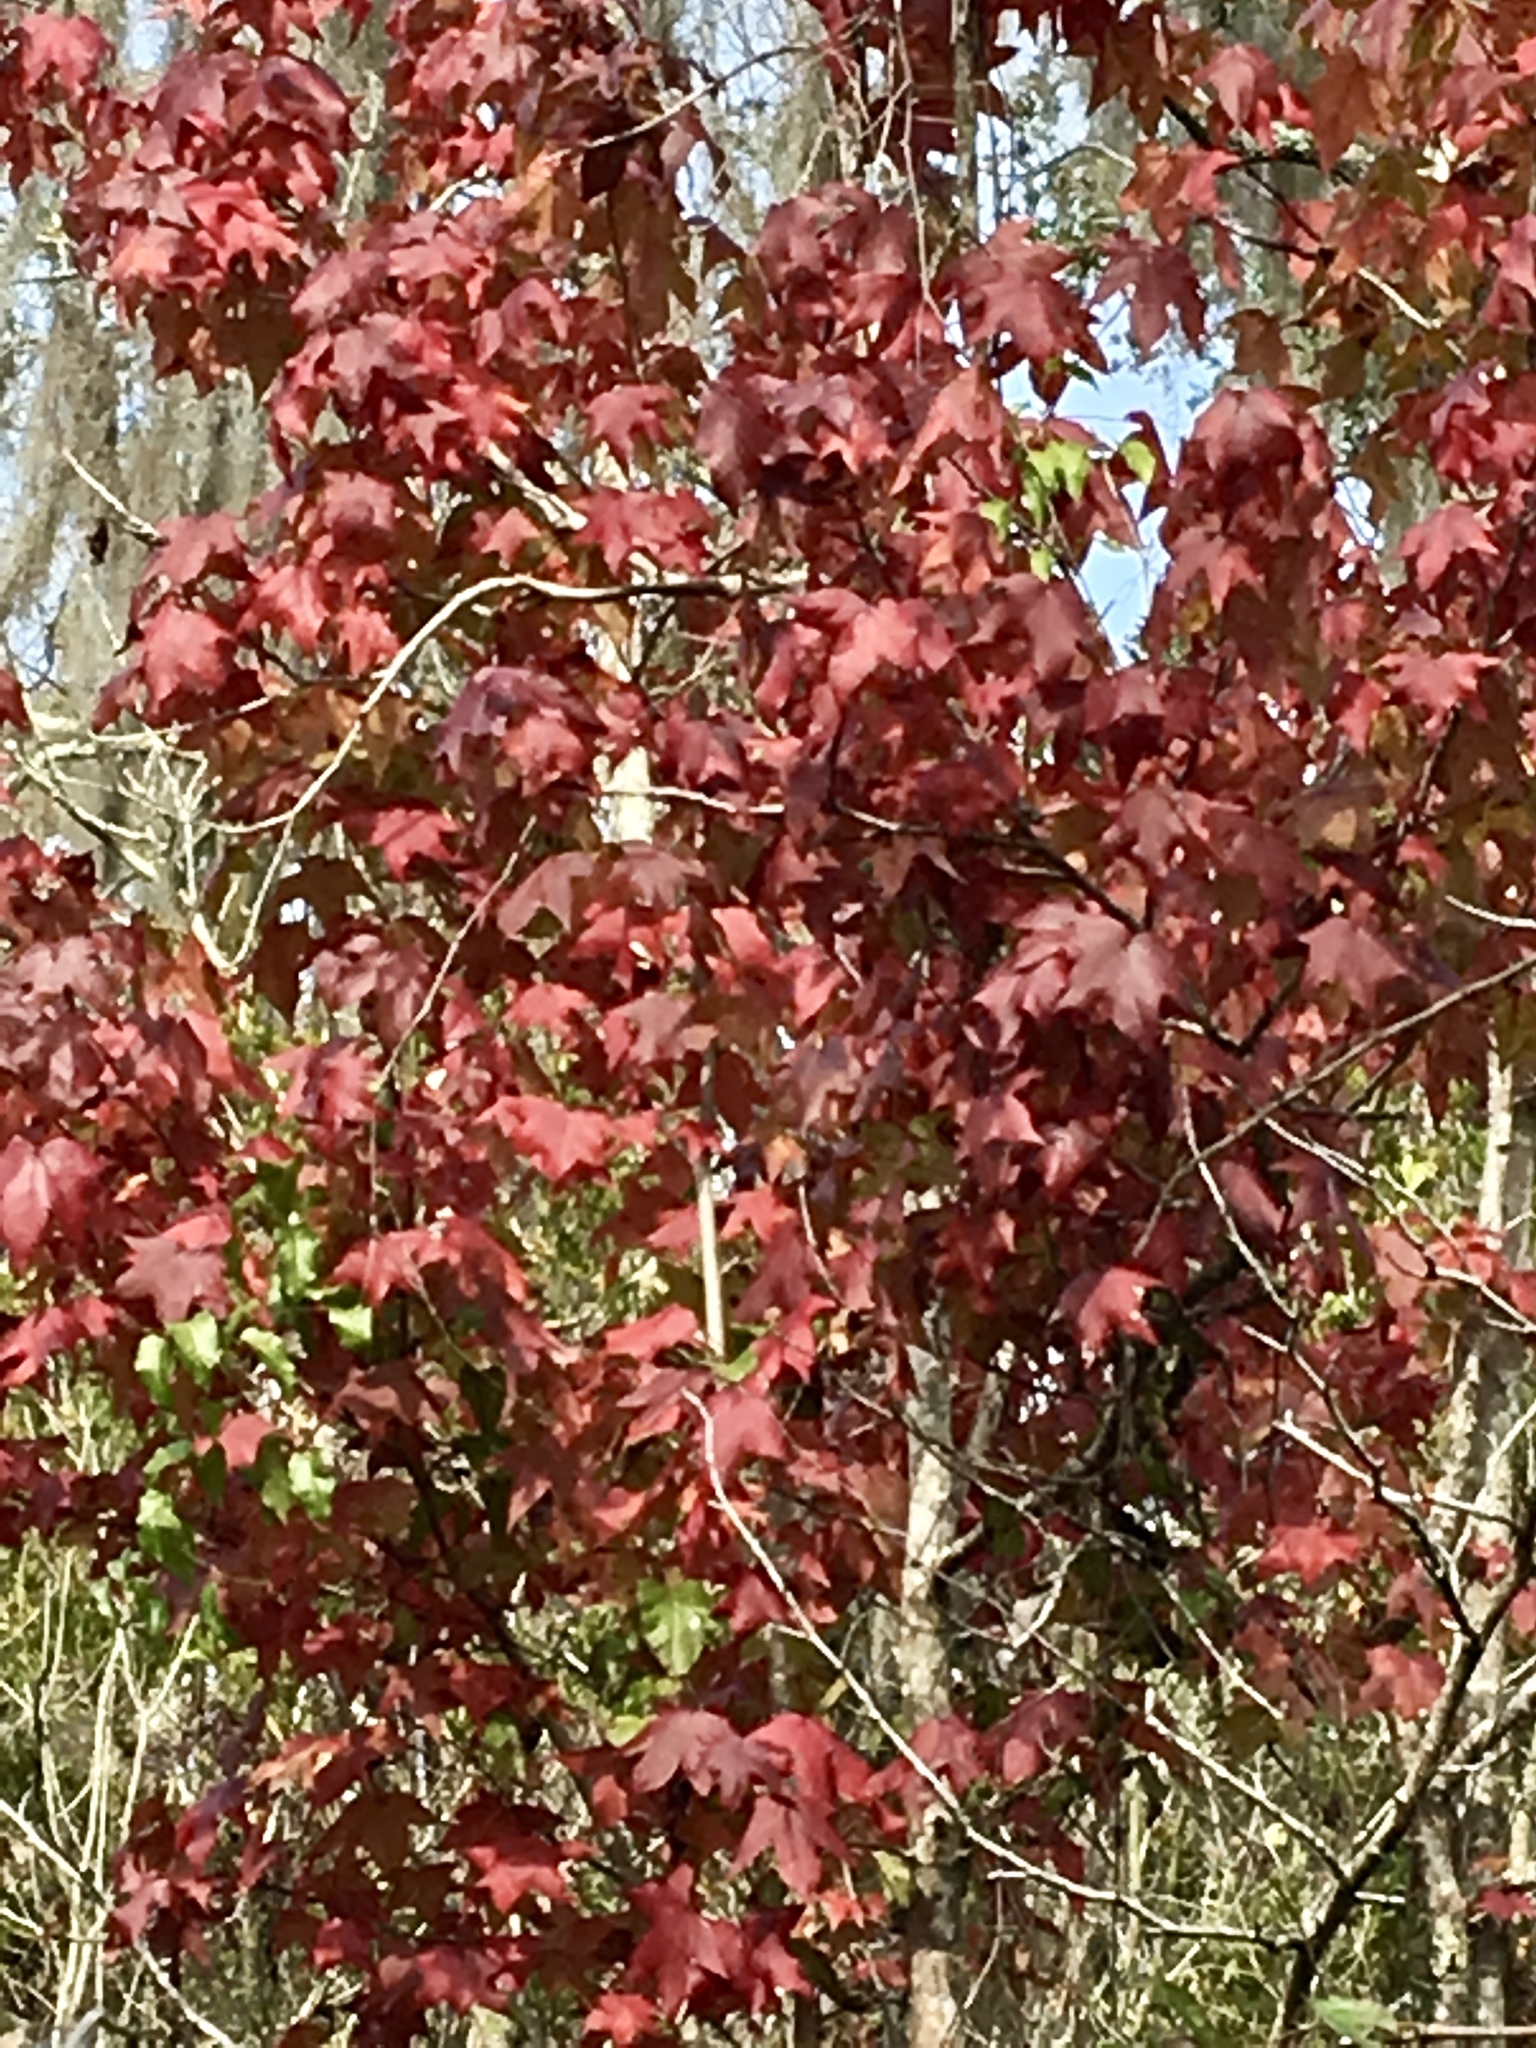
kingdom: Plantae
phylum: Tracheophyta
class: Magnoliopsida
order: Saxifragales
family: Altingiaceae
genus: Liquidambar
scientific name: Liquidambar styraciflua
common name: Sweet gum
